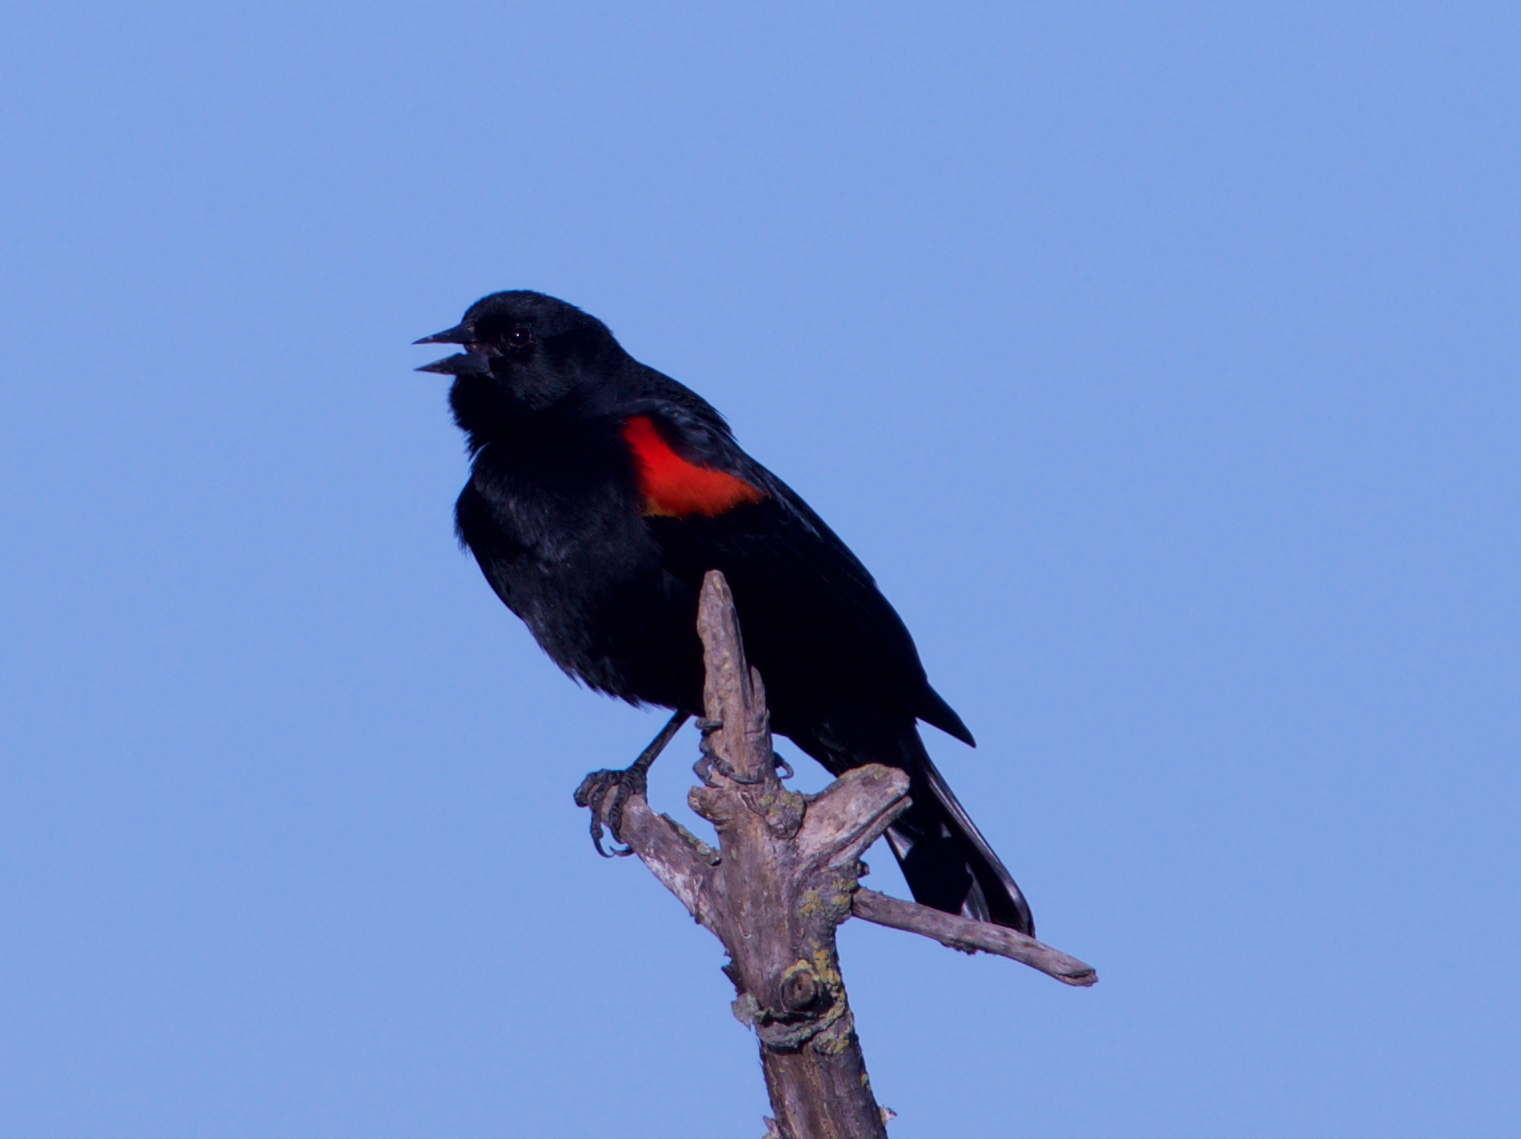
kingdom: Animalia
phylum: Chordata
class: Aves
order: Passeriformes
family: Icteridae
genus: Agelaius
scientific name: Agelaius phoeniceus
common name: Red-winged blackbird
